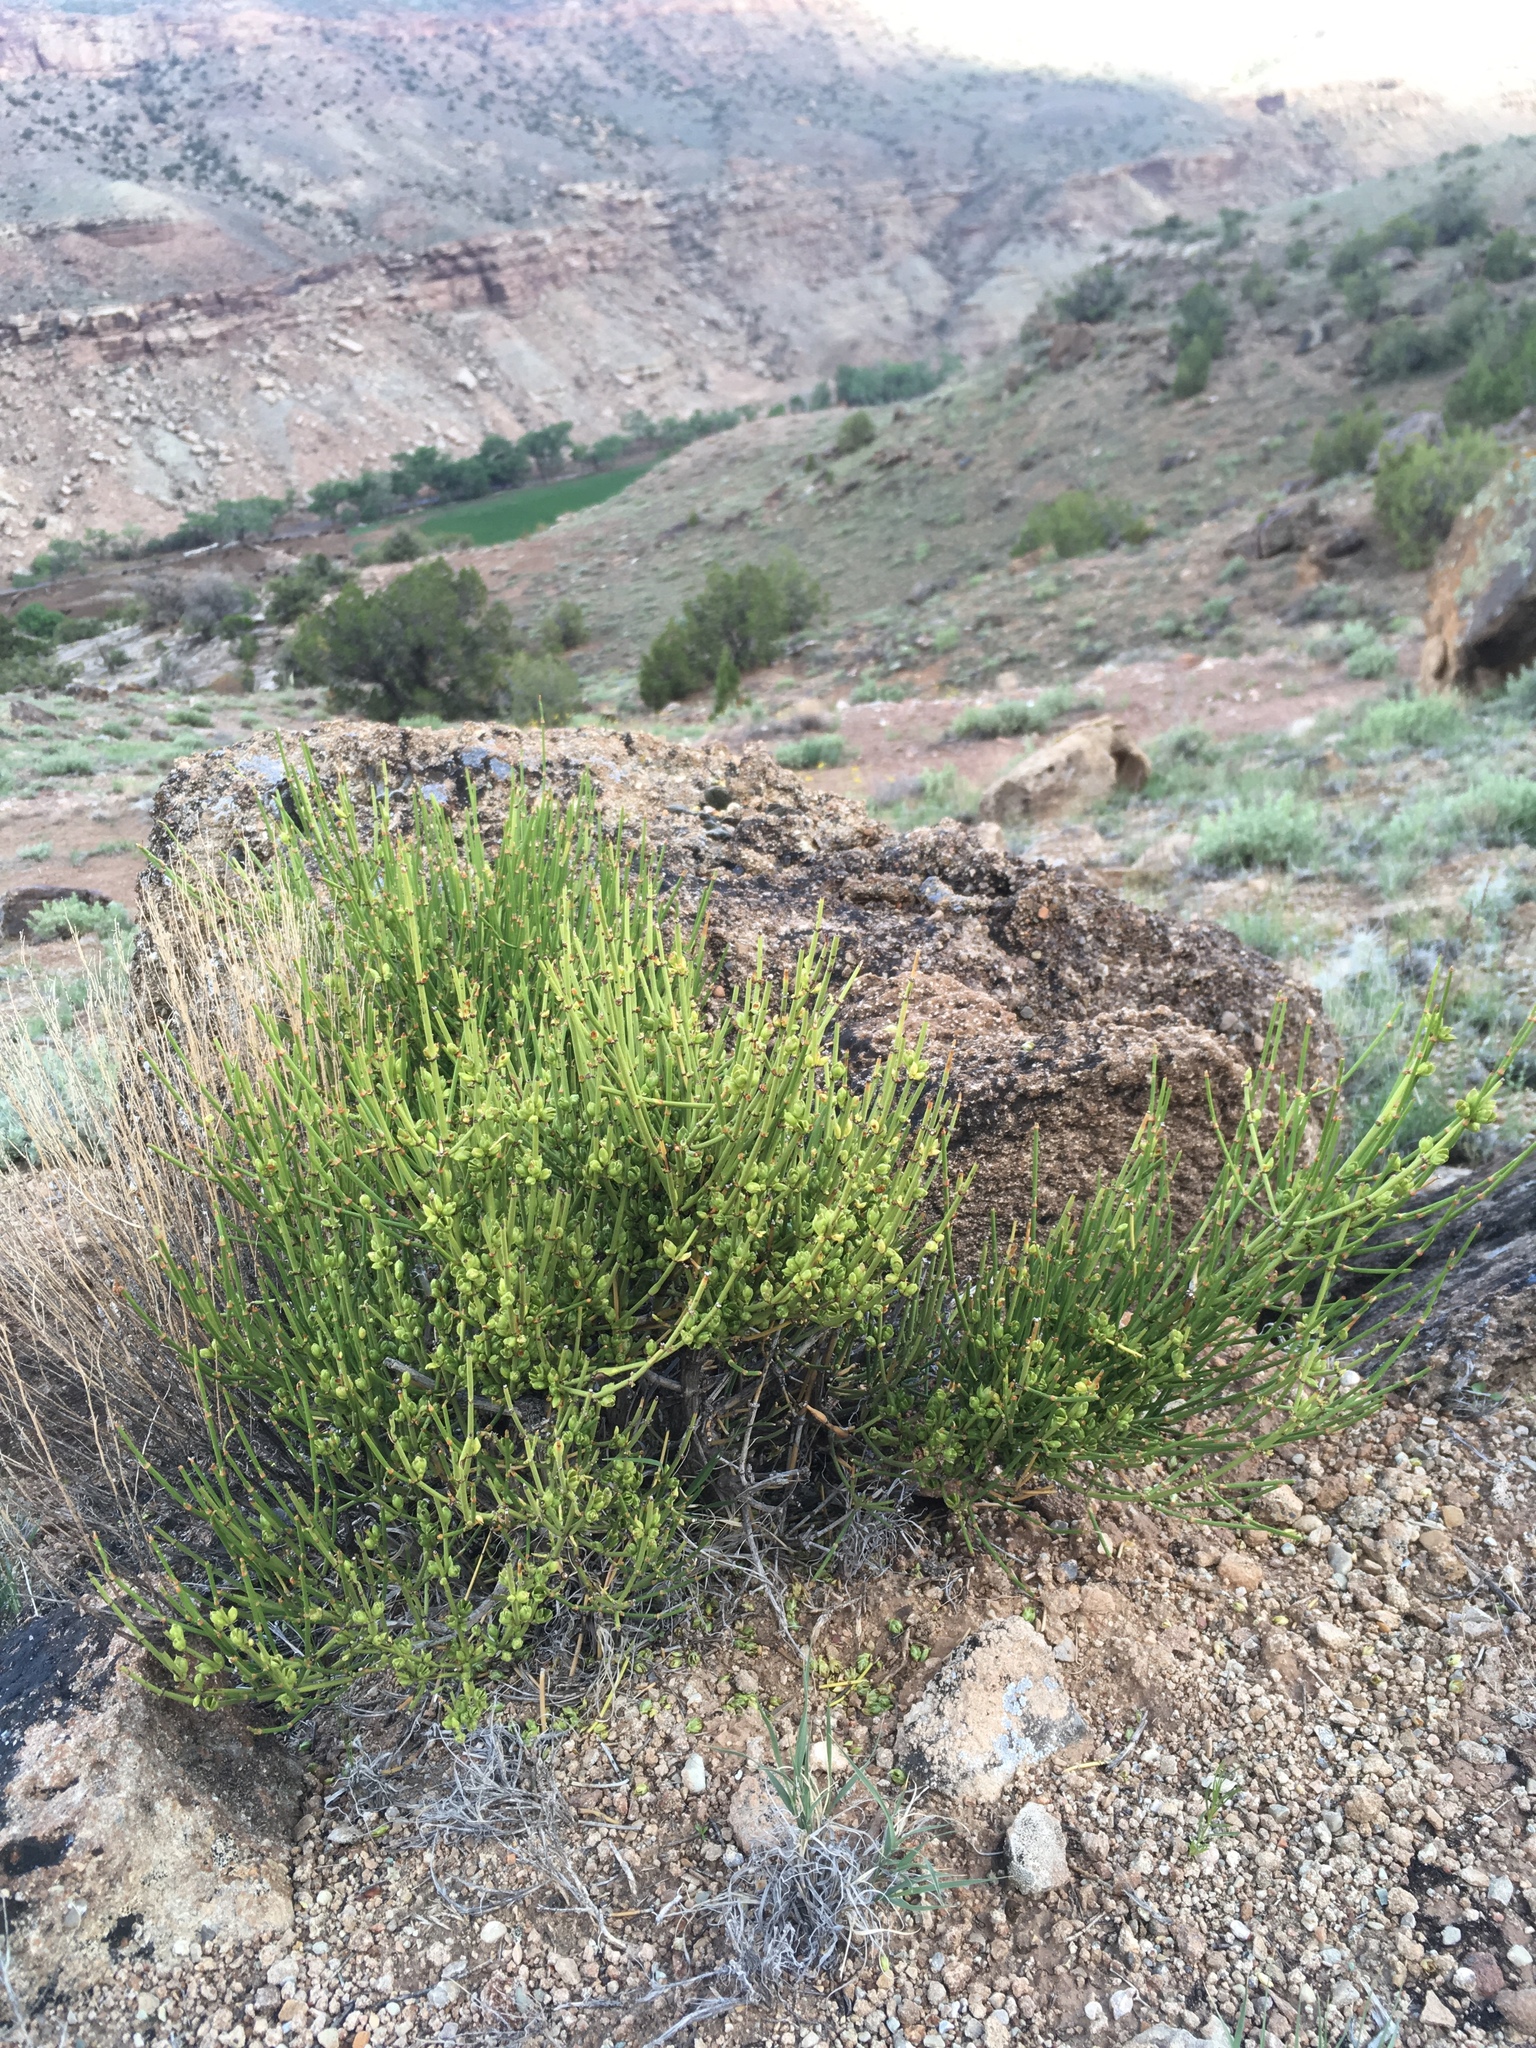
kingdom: Plantae
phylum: Tracheophyta
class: Gnetopsida
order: Ephedrales
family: Ephedraceae
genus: Ephedra
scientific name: Ephedra viridis
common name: Green ephedra
